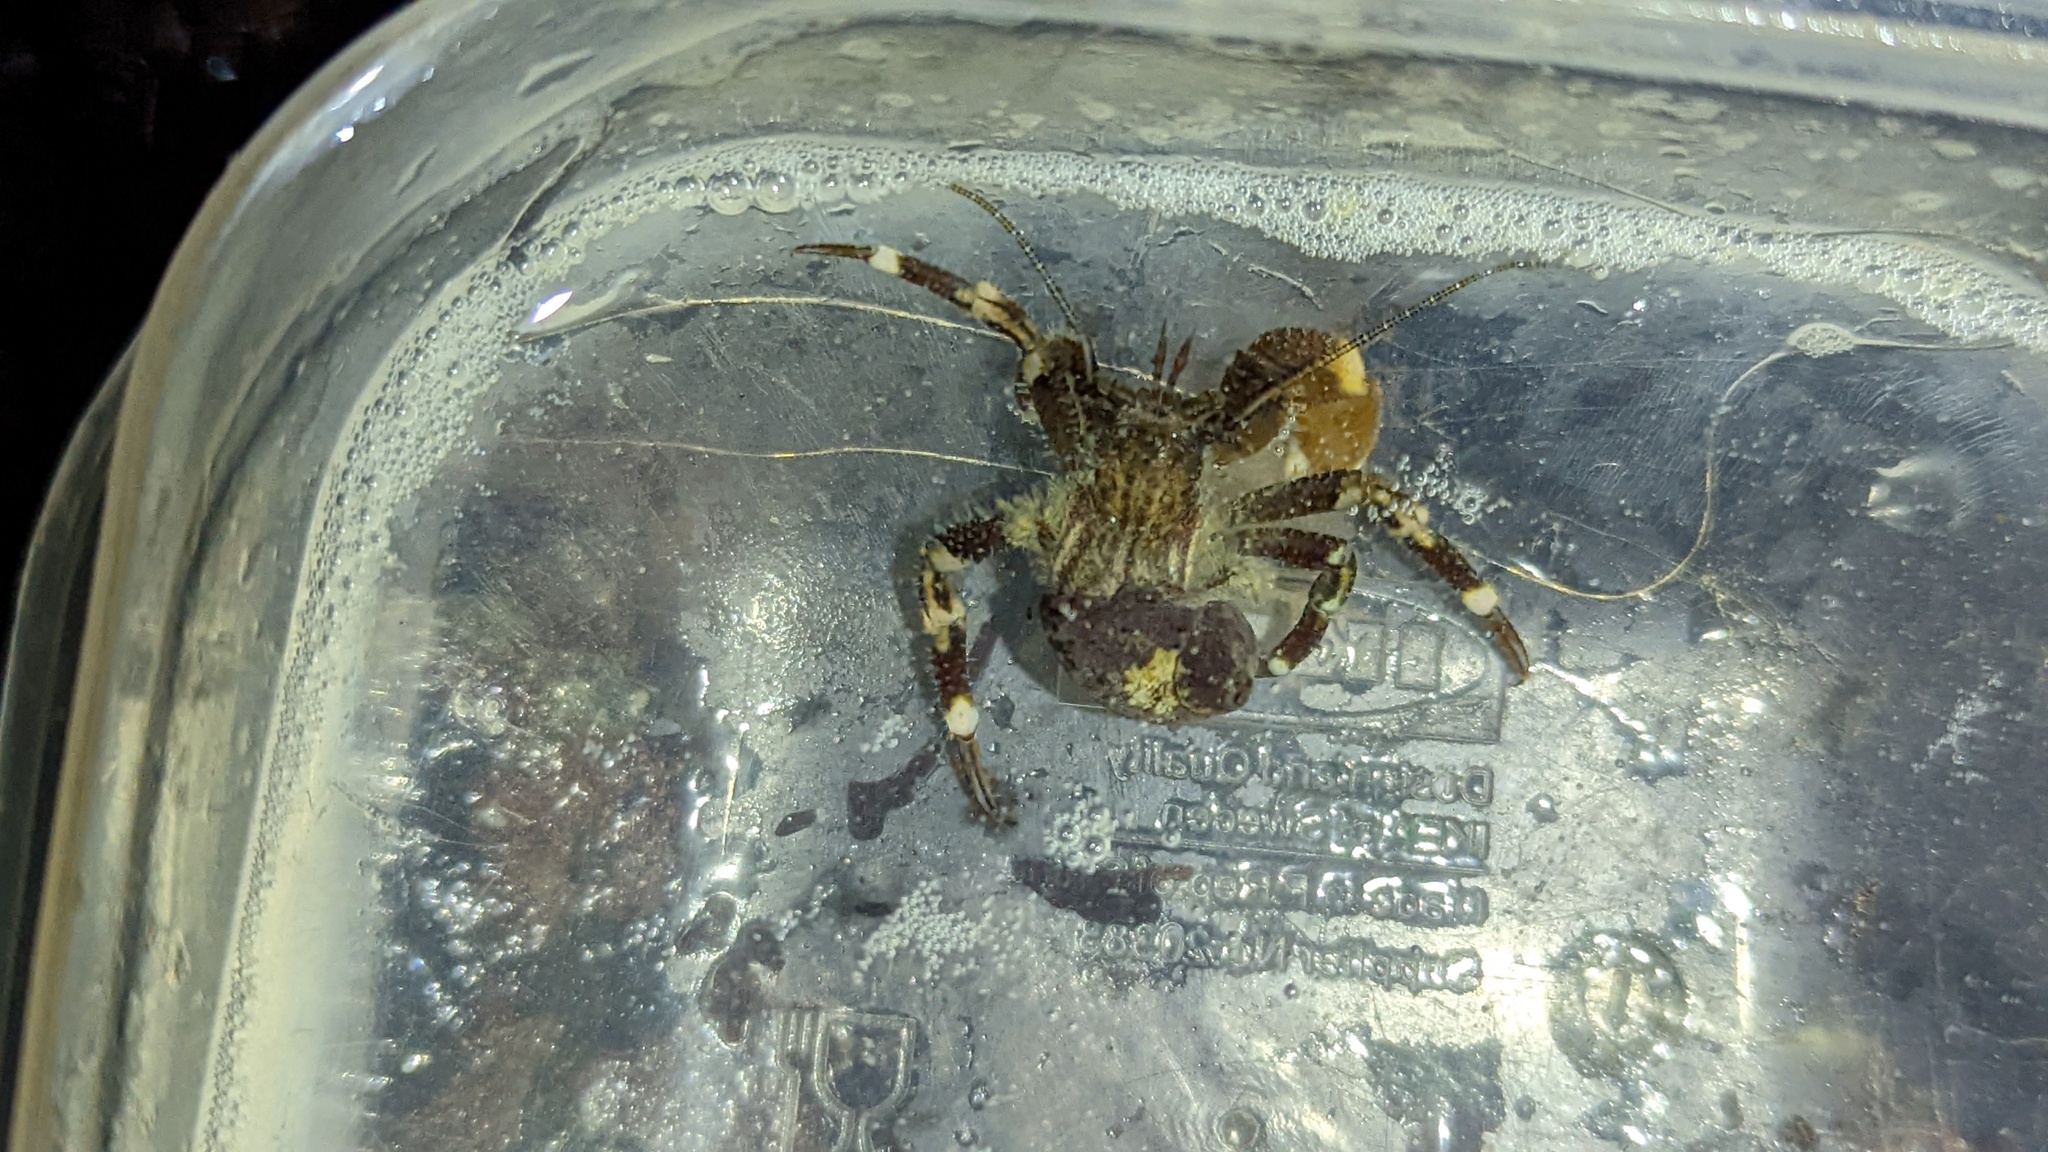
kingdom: Animalia
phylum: Arthropoda
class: Malacostraca
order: Decapoda
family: Paguridae
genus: Pagurus
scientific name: Pagurus hirsutiusculus
